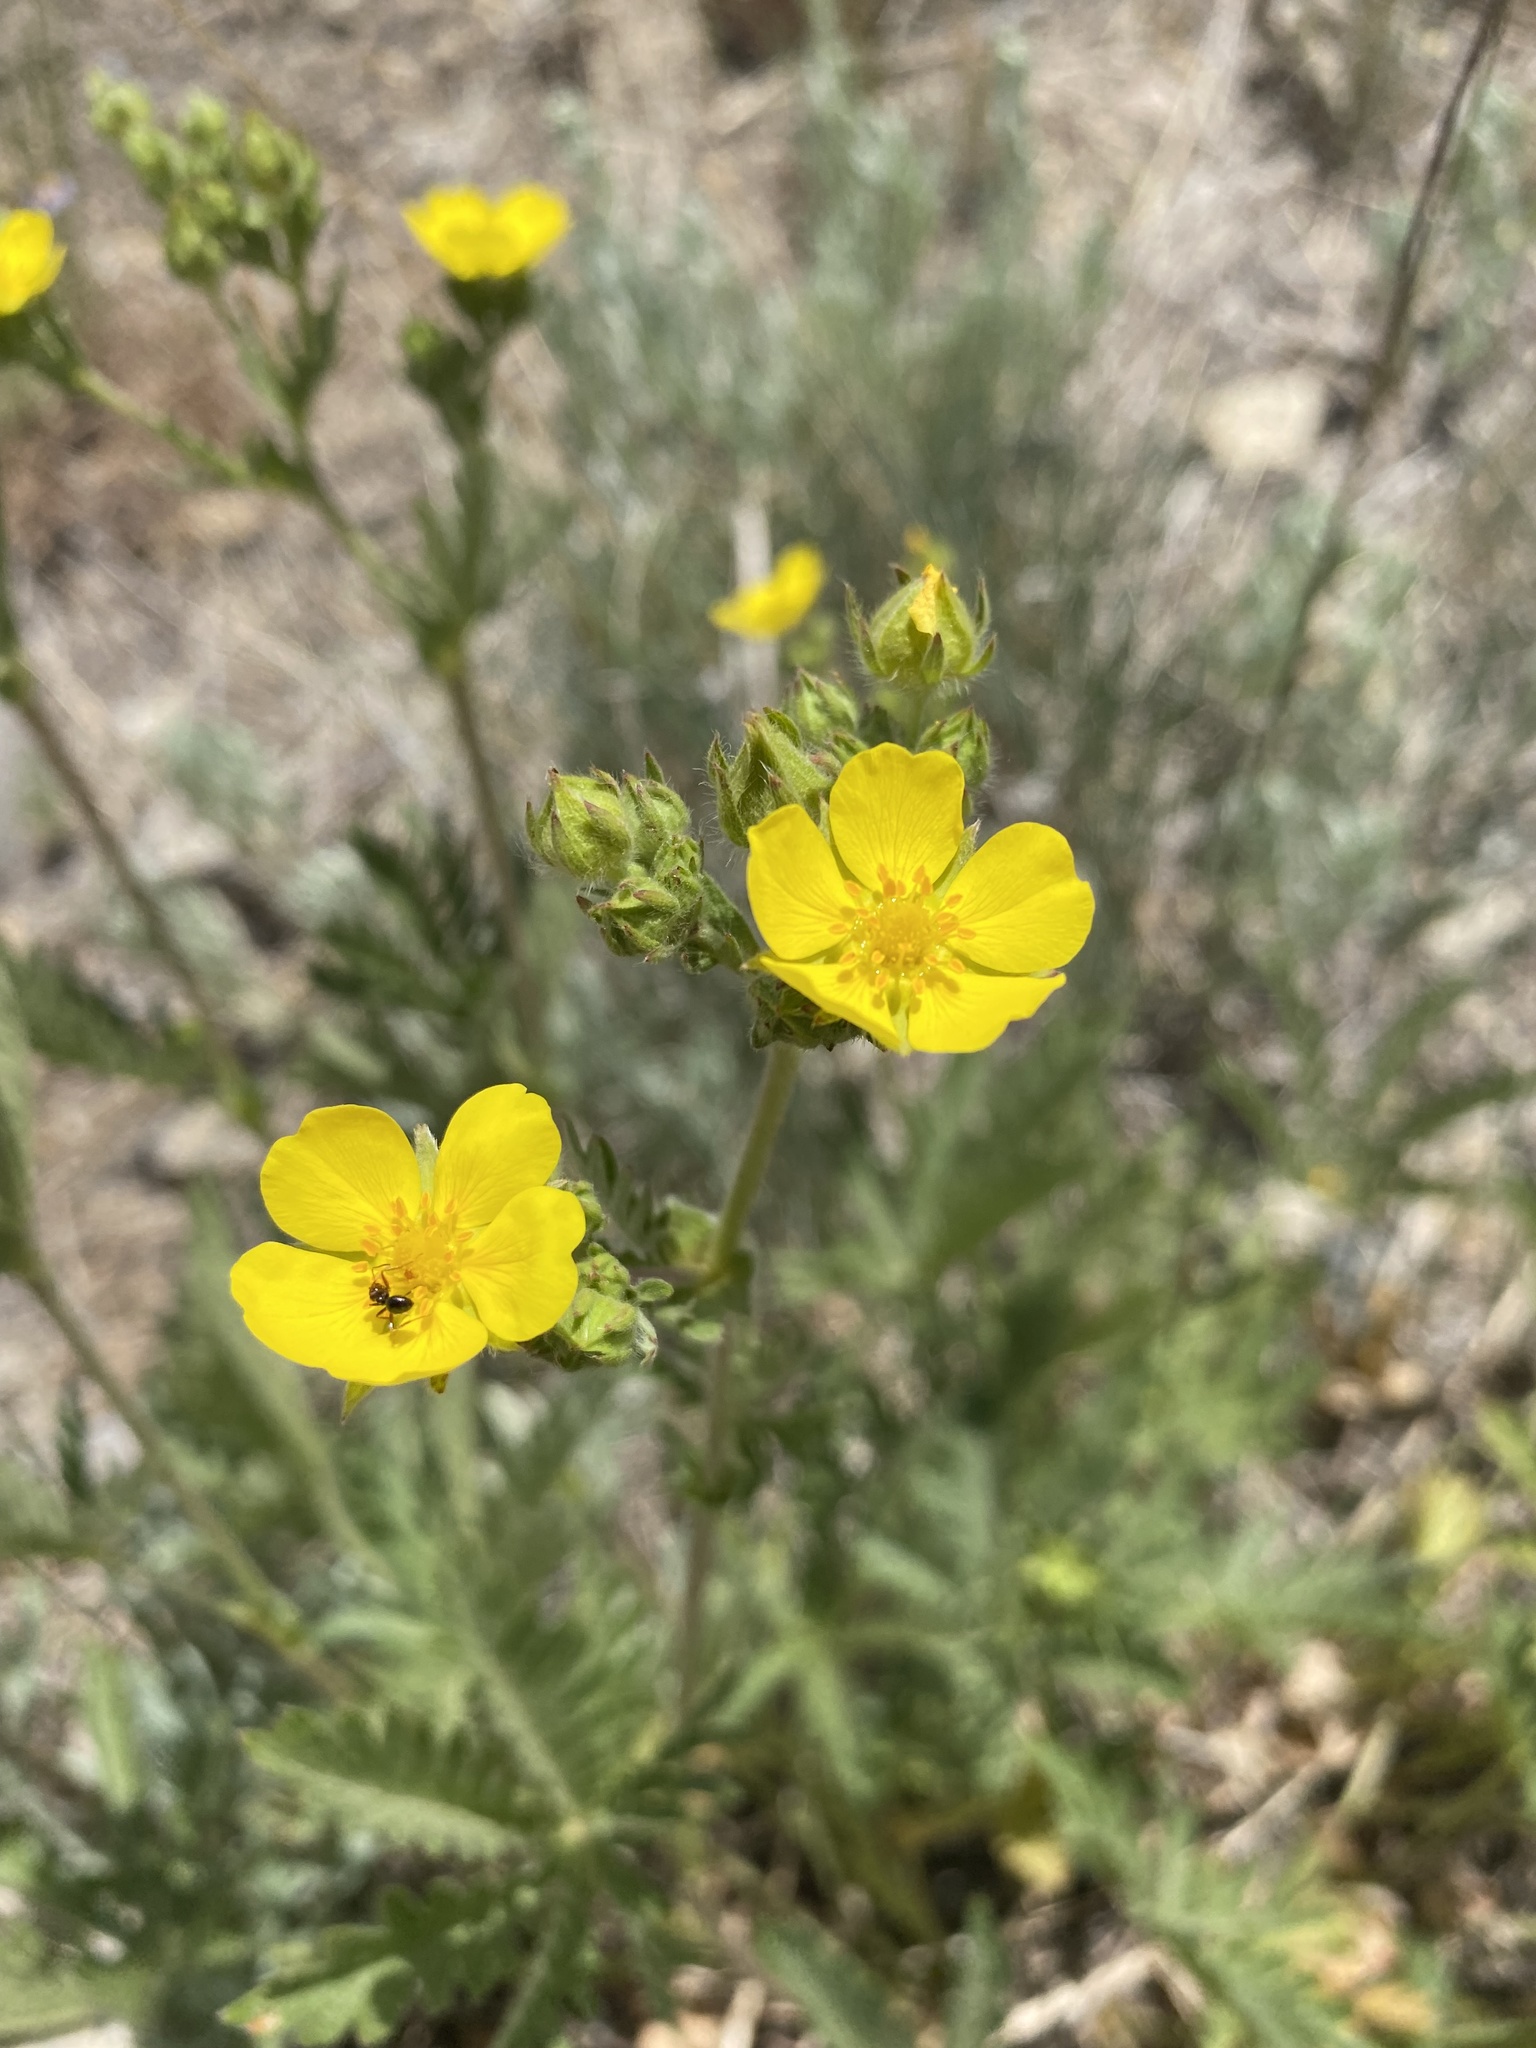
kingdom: Plantae
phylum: Tracheophyta
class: Magnoliopsida
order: Rosales
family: Rosaceae
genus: Potentilla
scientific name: Potentilla gracilis
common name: Graceful cinquefoil
